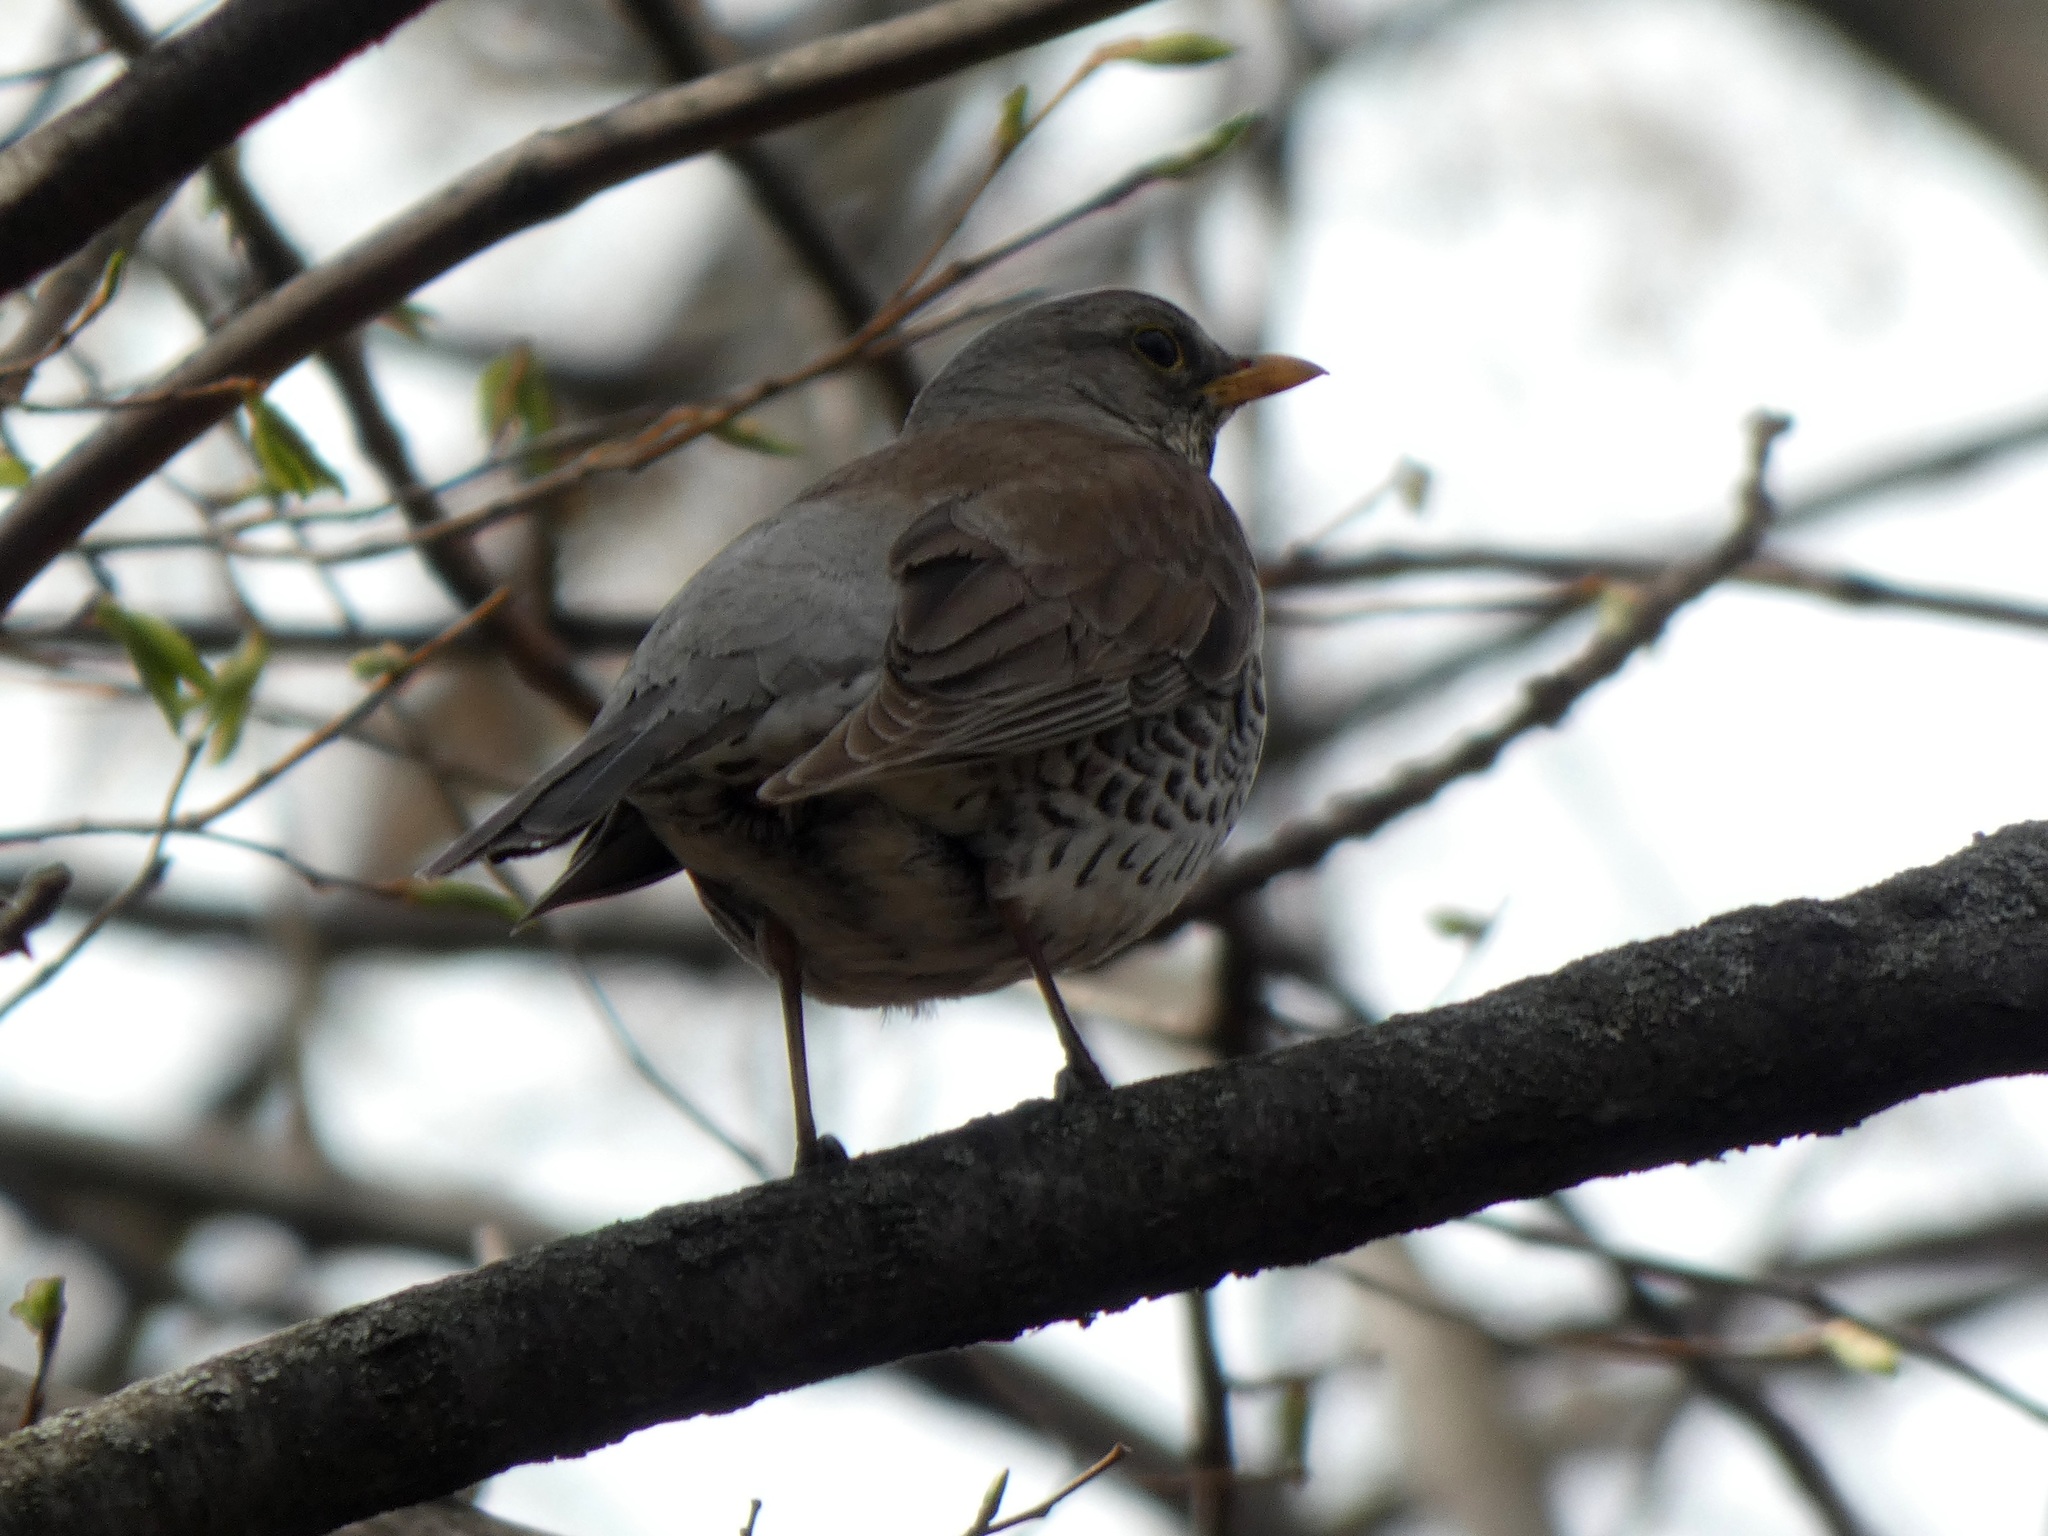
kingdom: Animalia
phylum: Chordata
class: Aves
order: Passeriformes
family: Turdidae
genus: Turdus
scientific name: Turdus pilaris
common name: Fieldfare
